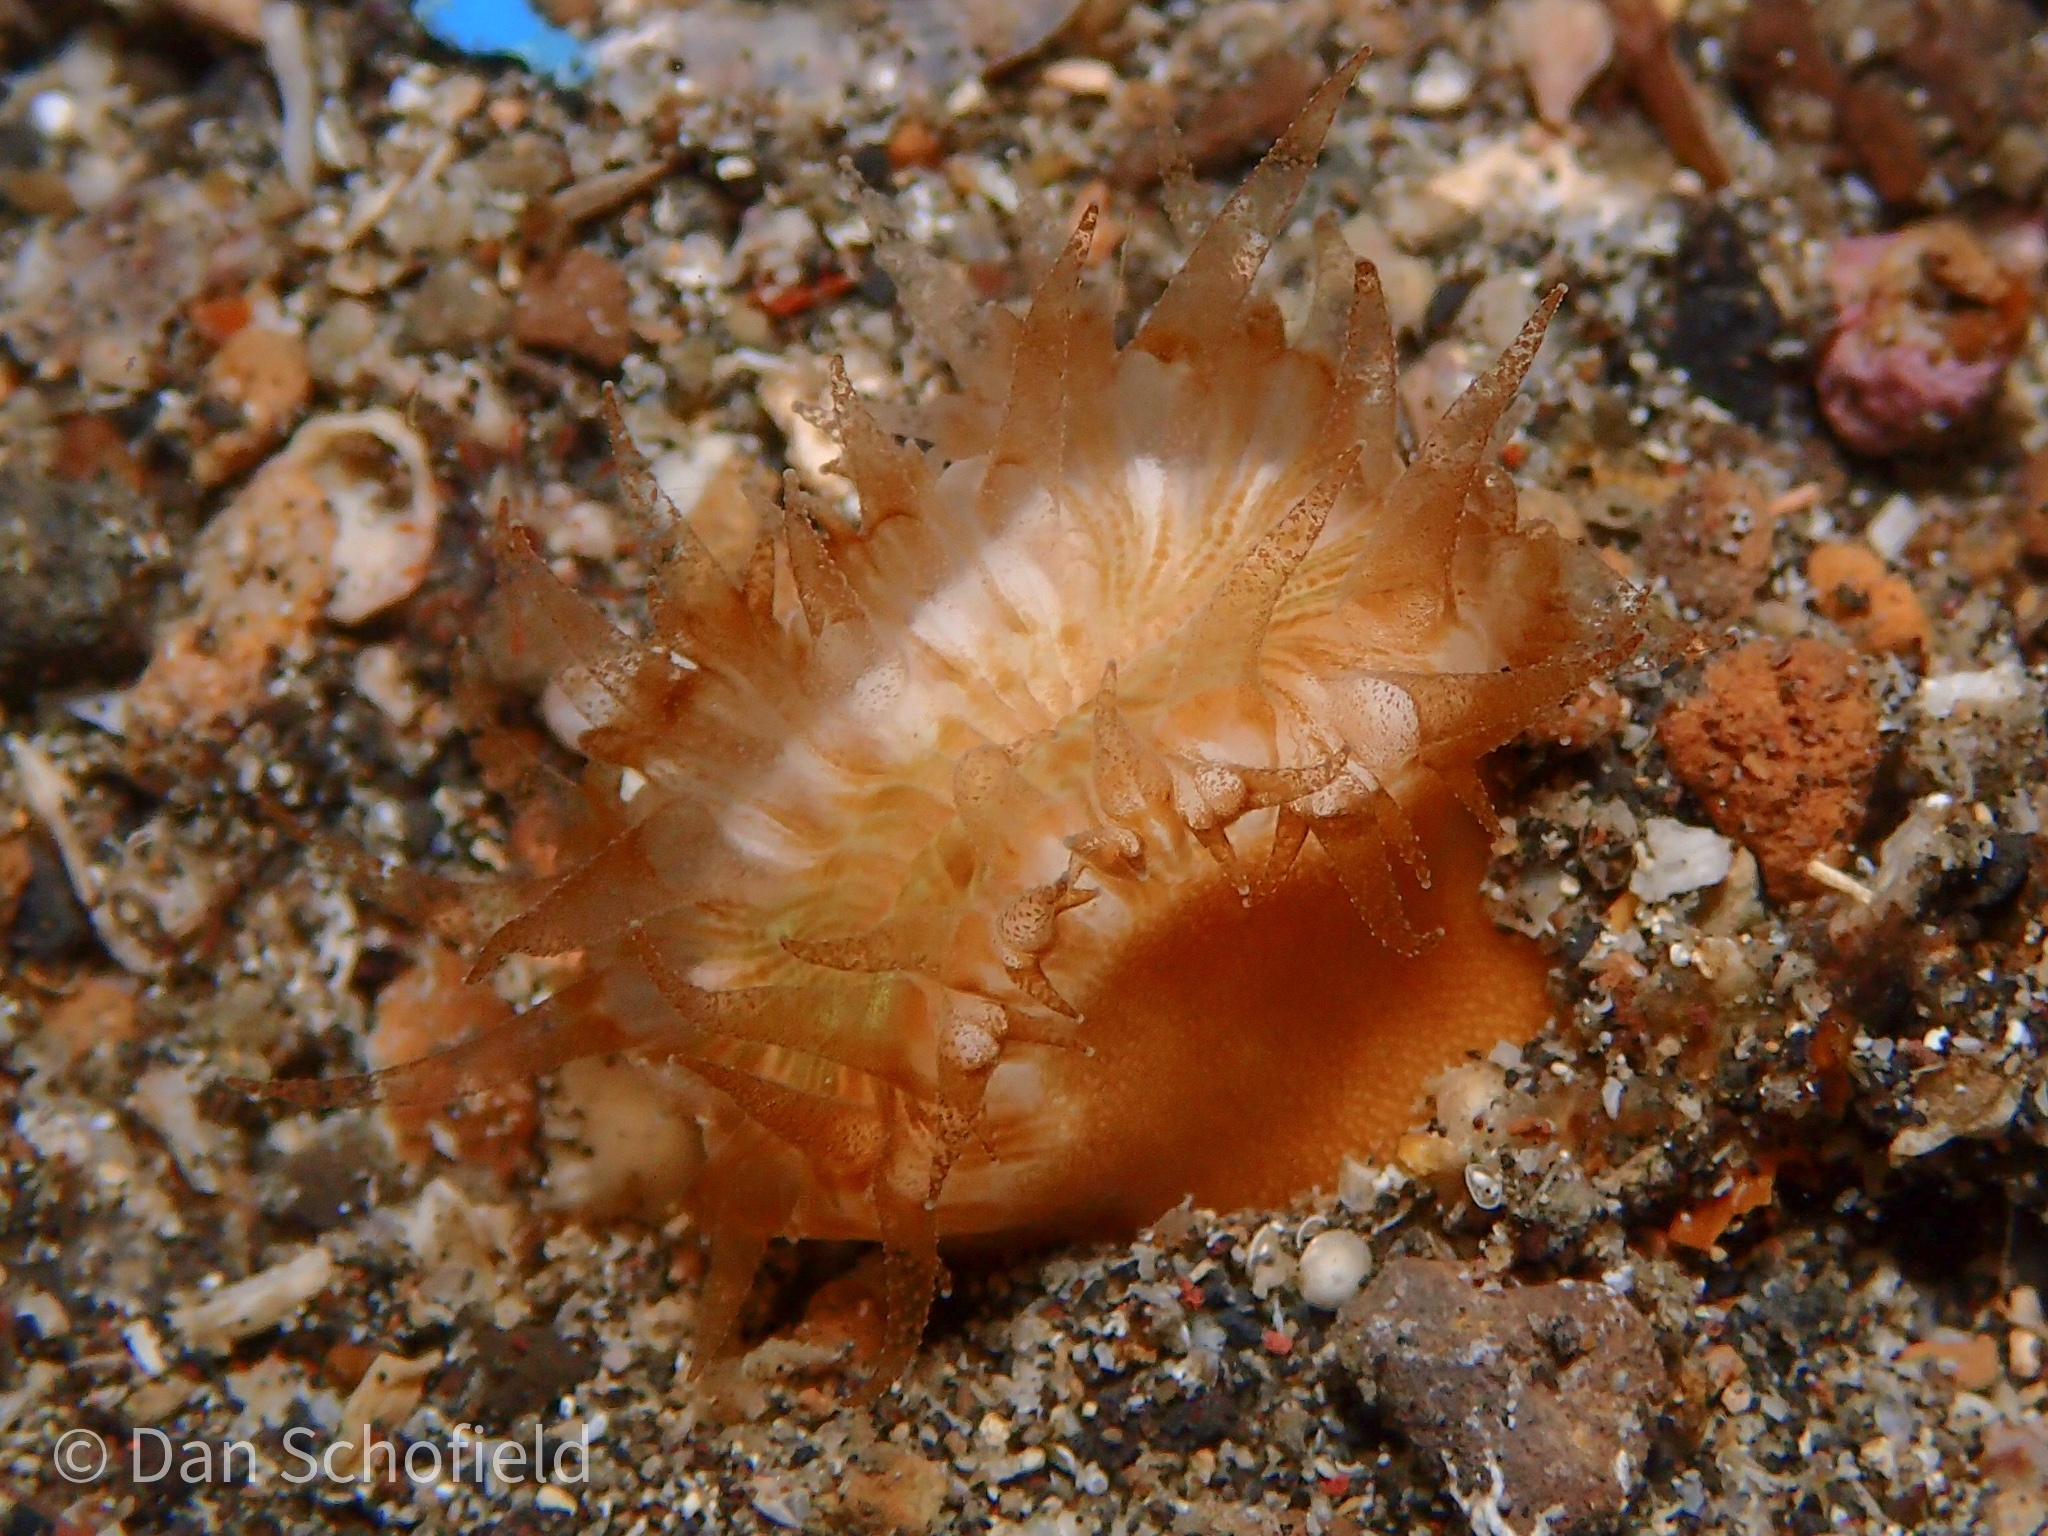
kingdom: Animalia
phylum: Cnidaria
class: Anthozoa
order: Scleractinia
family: Dendrophylliidae
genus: Heteropsammia
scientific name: Heteropsammia cochlea
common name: Smooth bum coral
